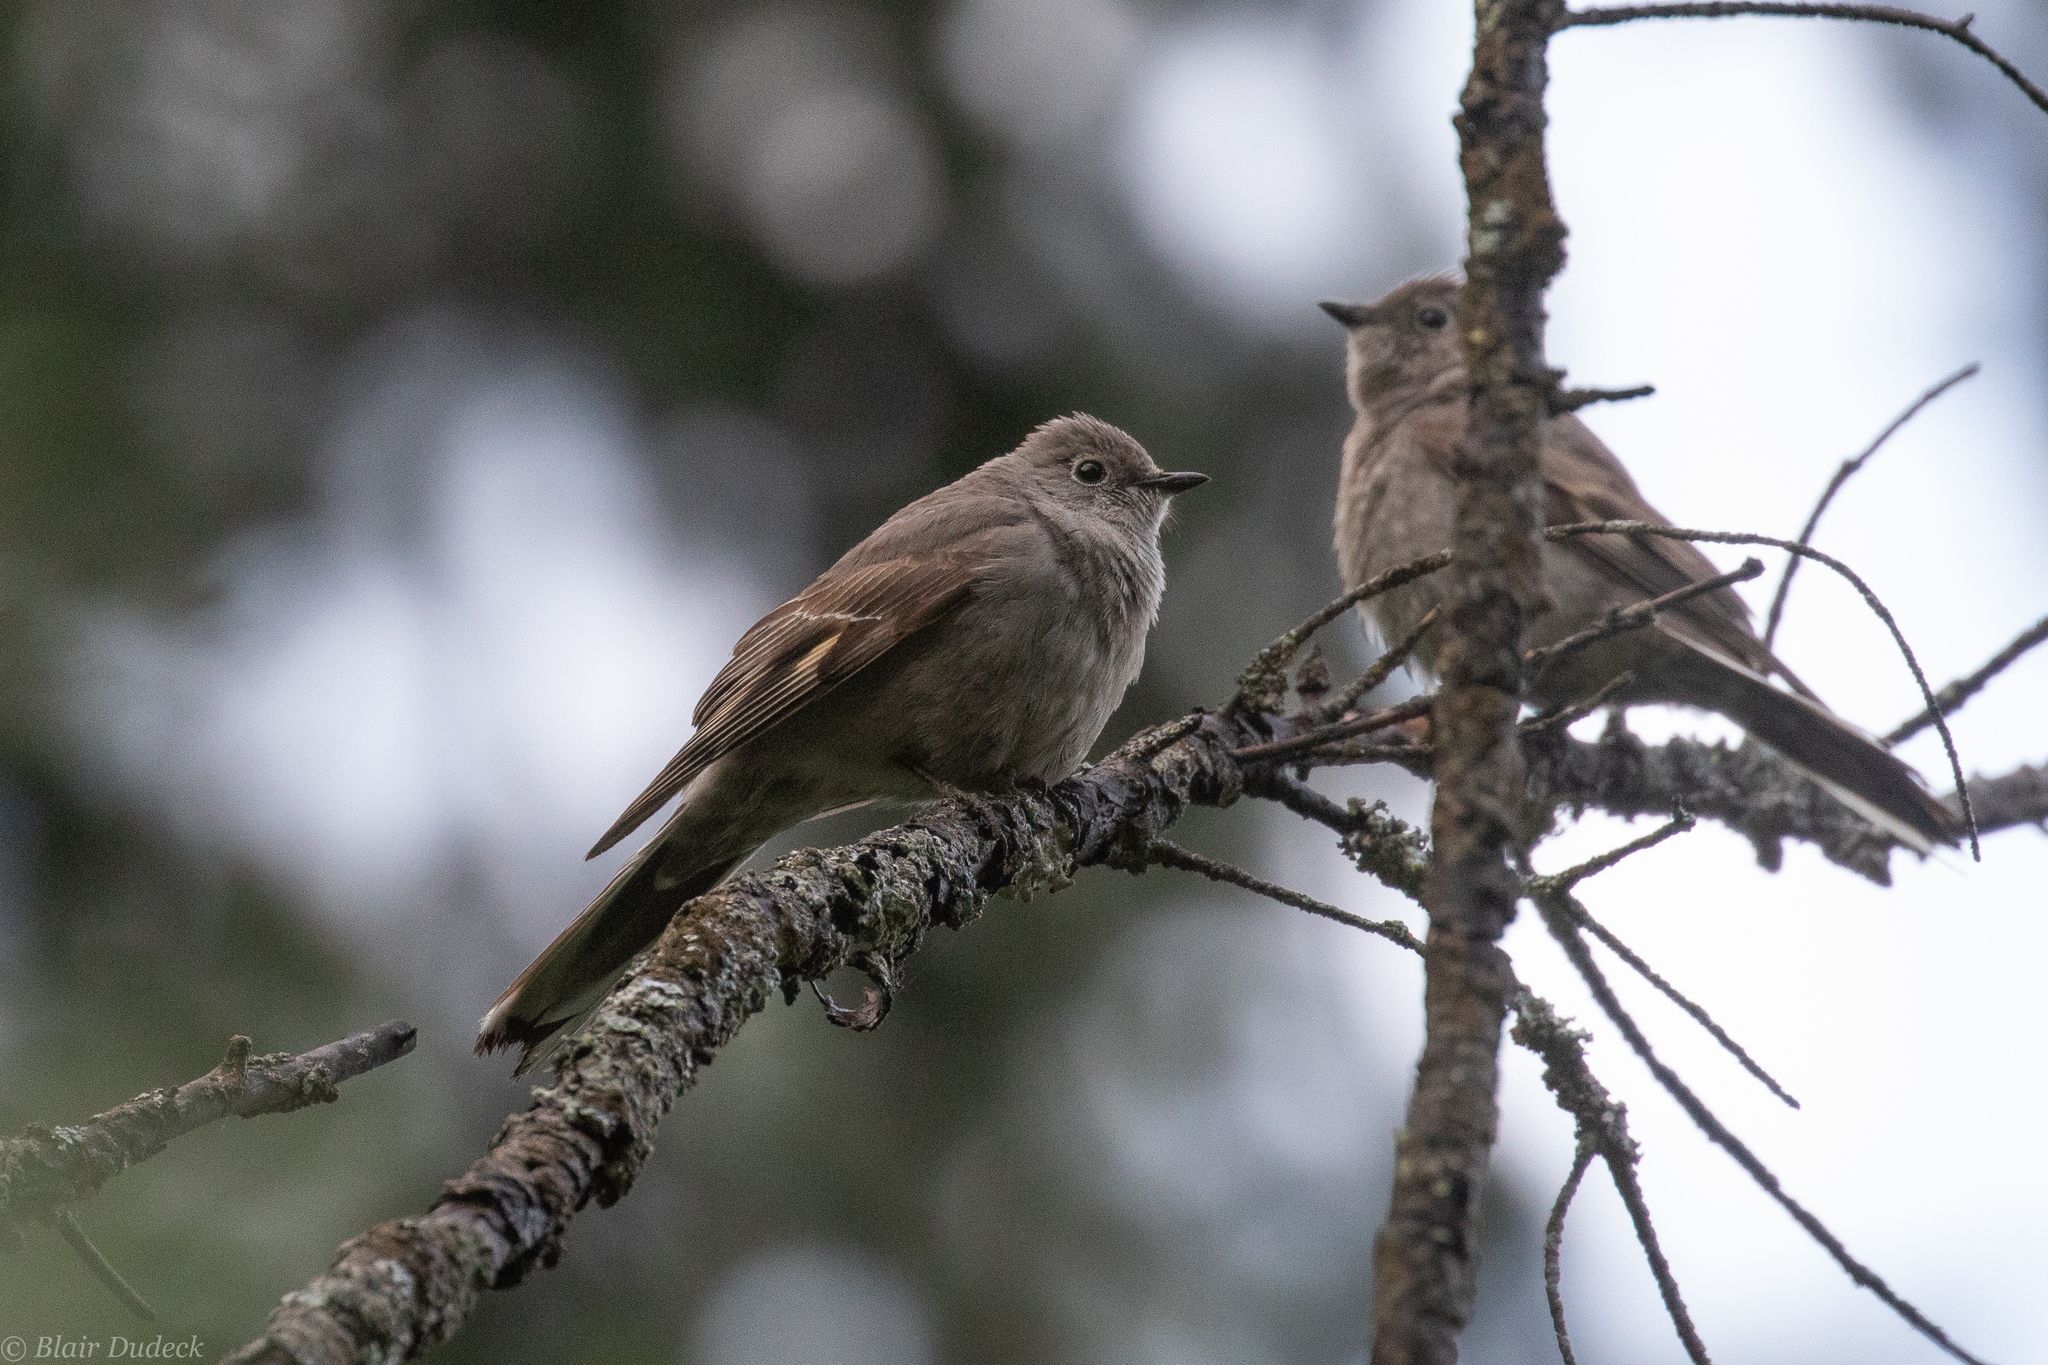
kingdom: Animalia
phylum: Chordata
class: Aves
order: Passeriformes
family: Turdidae
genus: Myadestes
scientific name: Myadestes townsendi
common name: Townsend's solitaire
